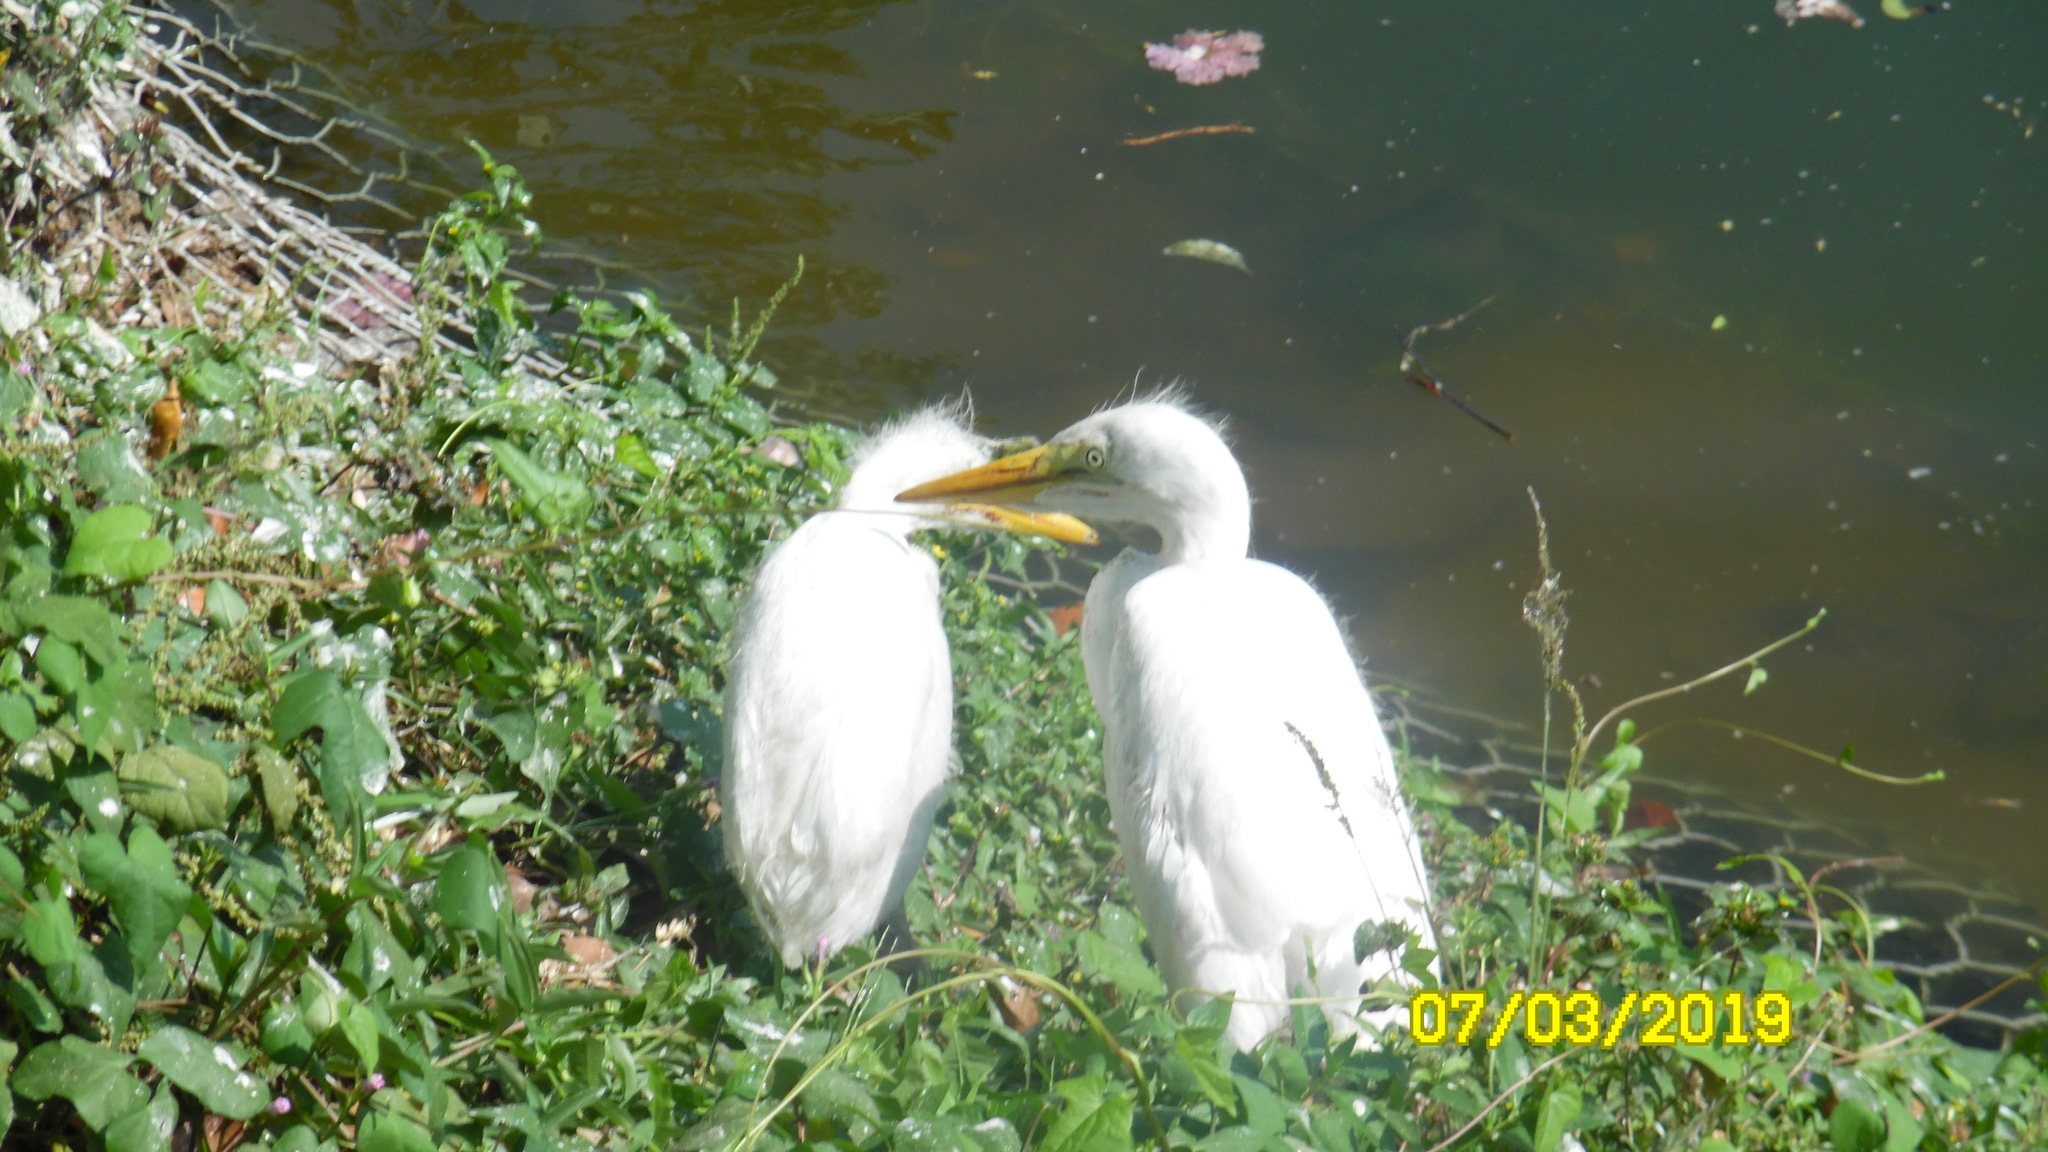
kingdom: Animalia
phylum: Chordata
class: Aves
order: Pelecaniformes
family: Ardeidae
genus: Bubulcus
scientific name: Bubulcus coromandus
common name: Eastern cattle egret
